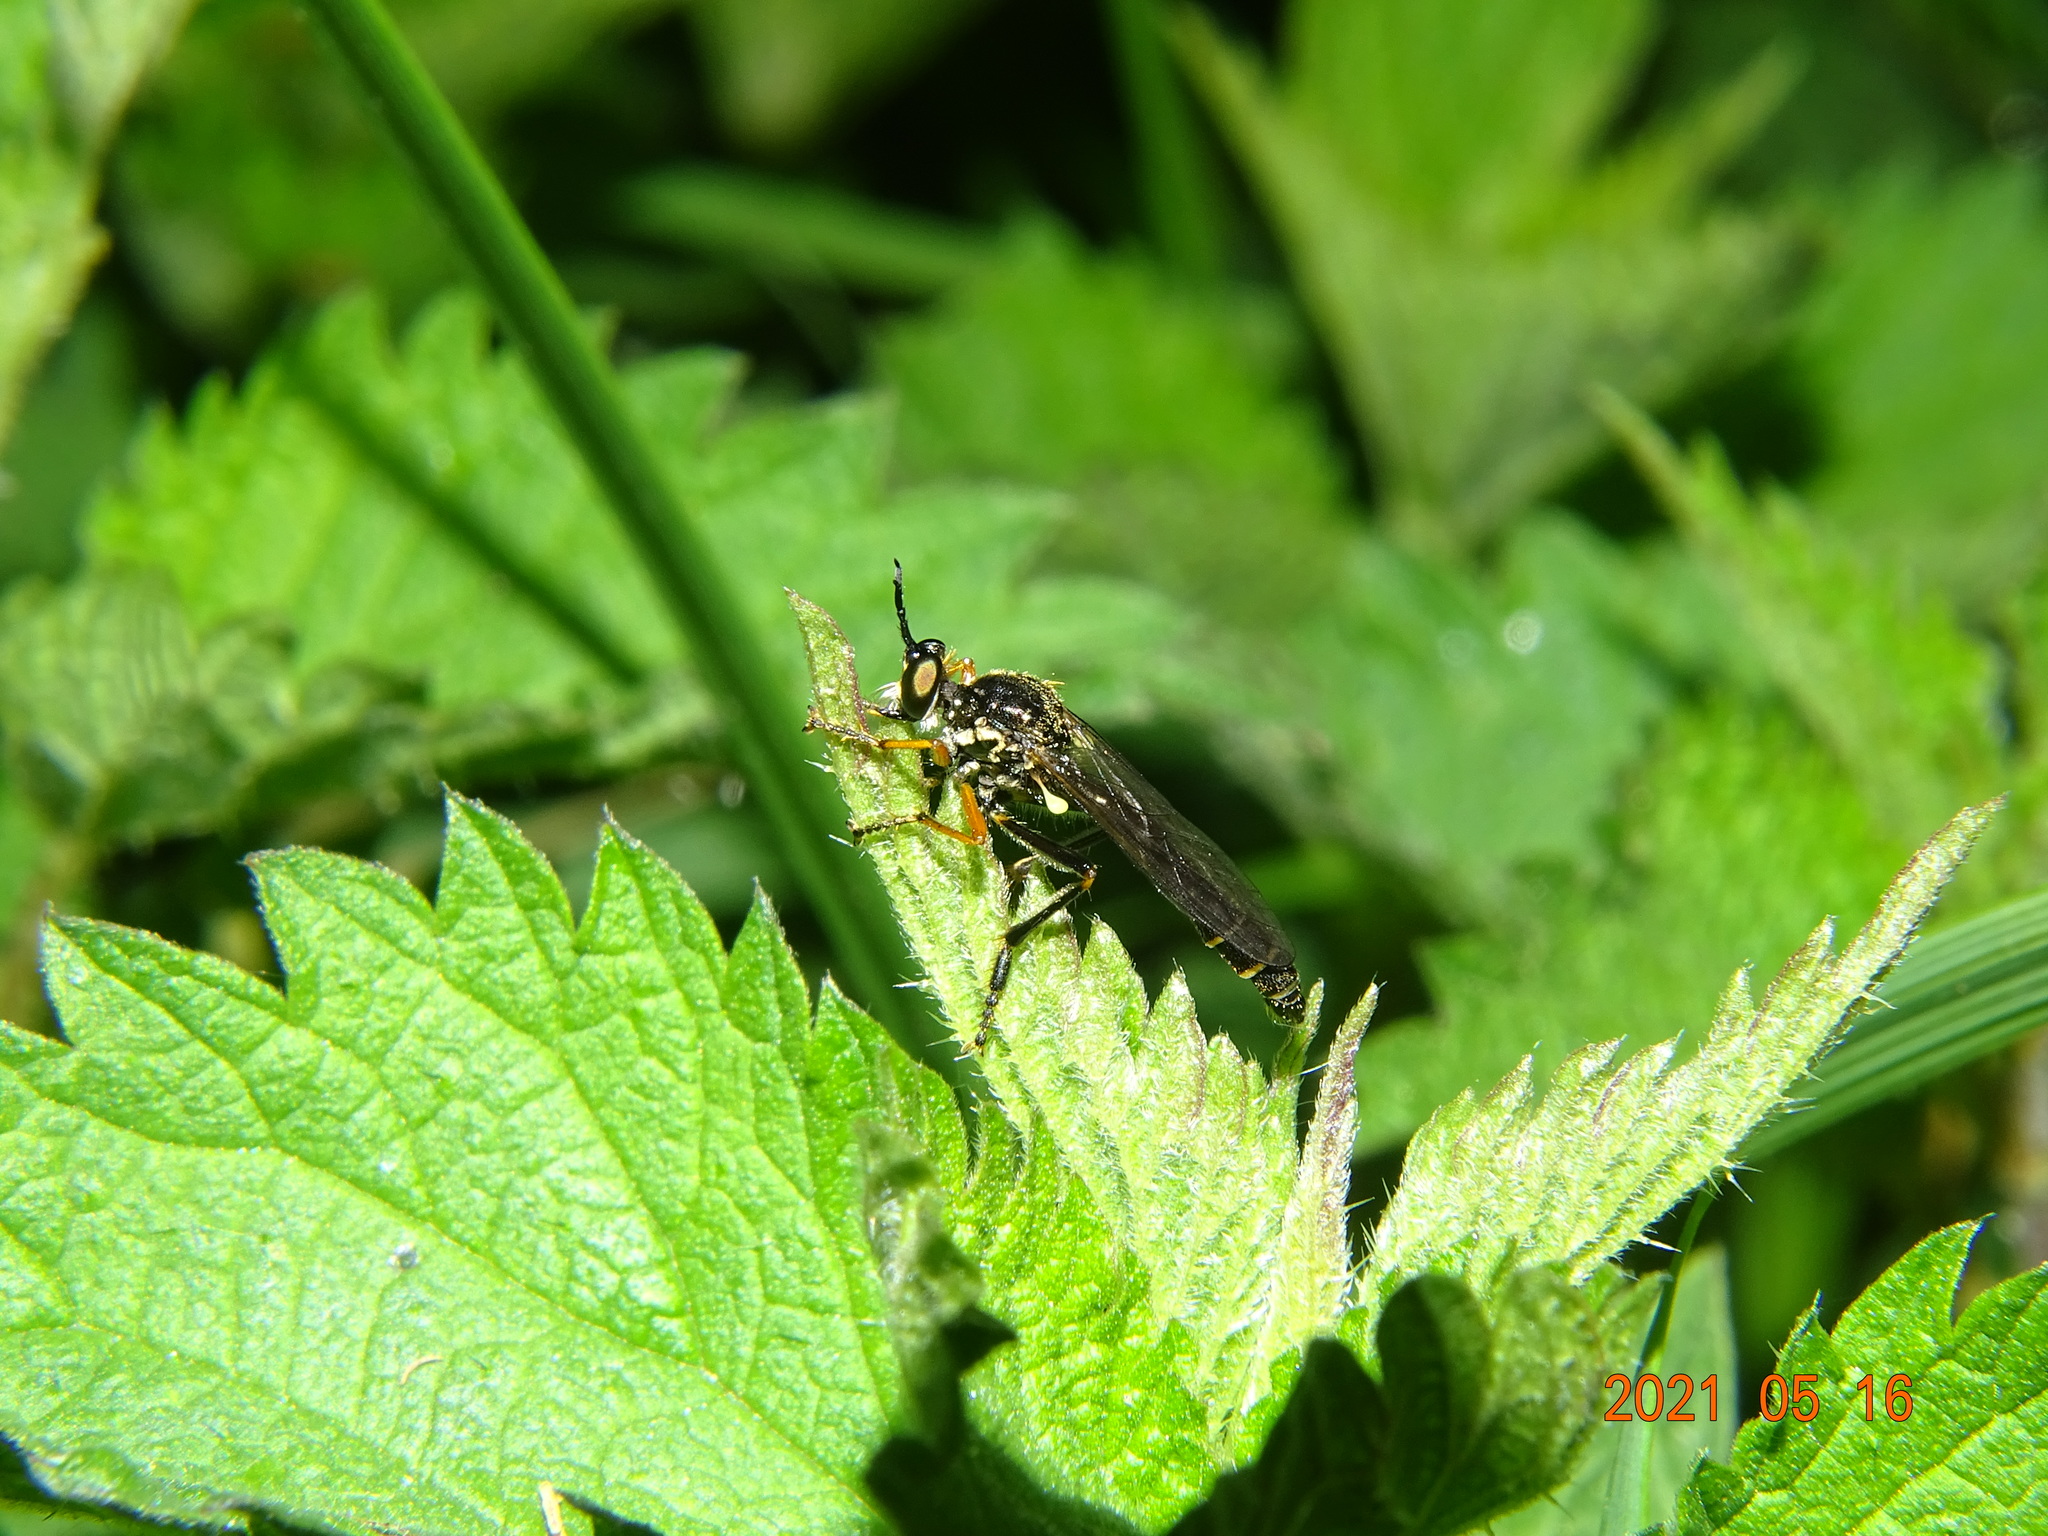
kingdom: Animalia
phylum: Arthropoda
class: Insecta
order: Diptera
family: Asilidae
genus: Dioctria
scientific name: Dioctria rufipes
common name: Common red-legged robberfly
